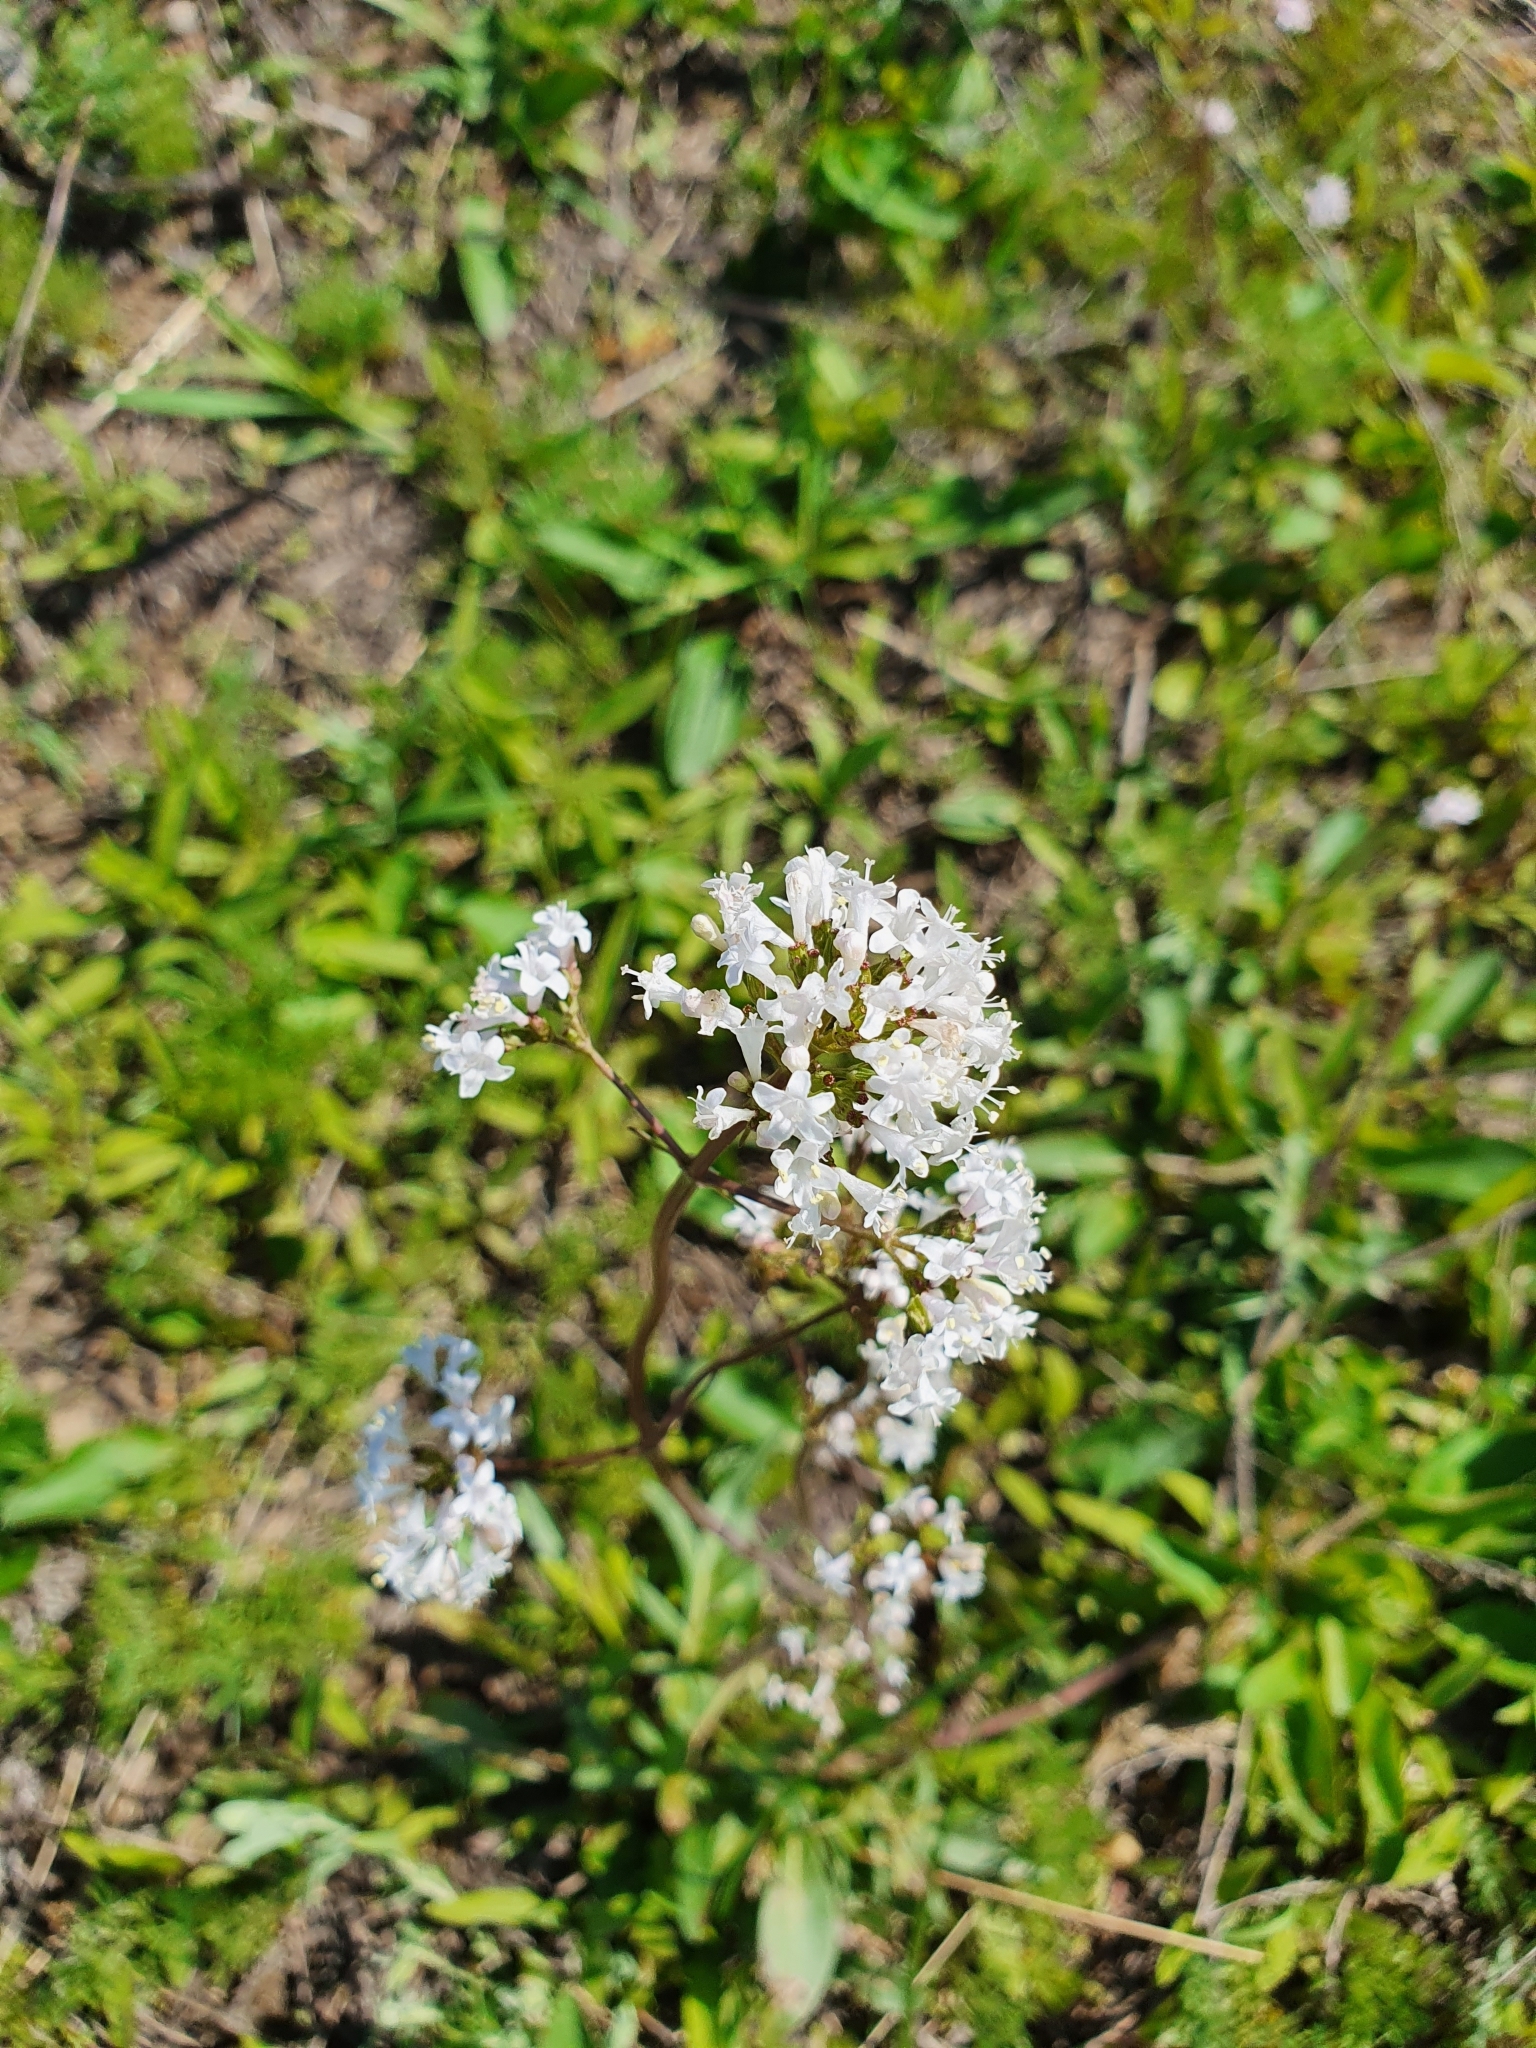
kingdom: Plantae
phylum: Tracheophyta
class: Magnoliopsida
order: Dipsacales
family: Caprifoliaceae
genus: Valeriana
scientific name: Valeriana tuberosa
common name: Tuberous valerian
